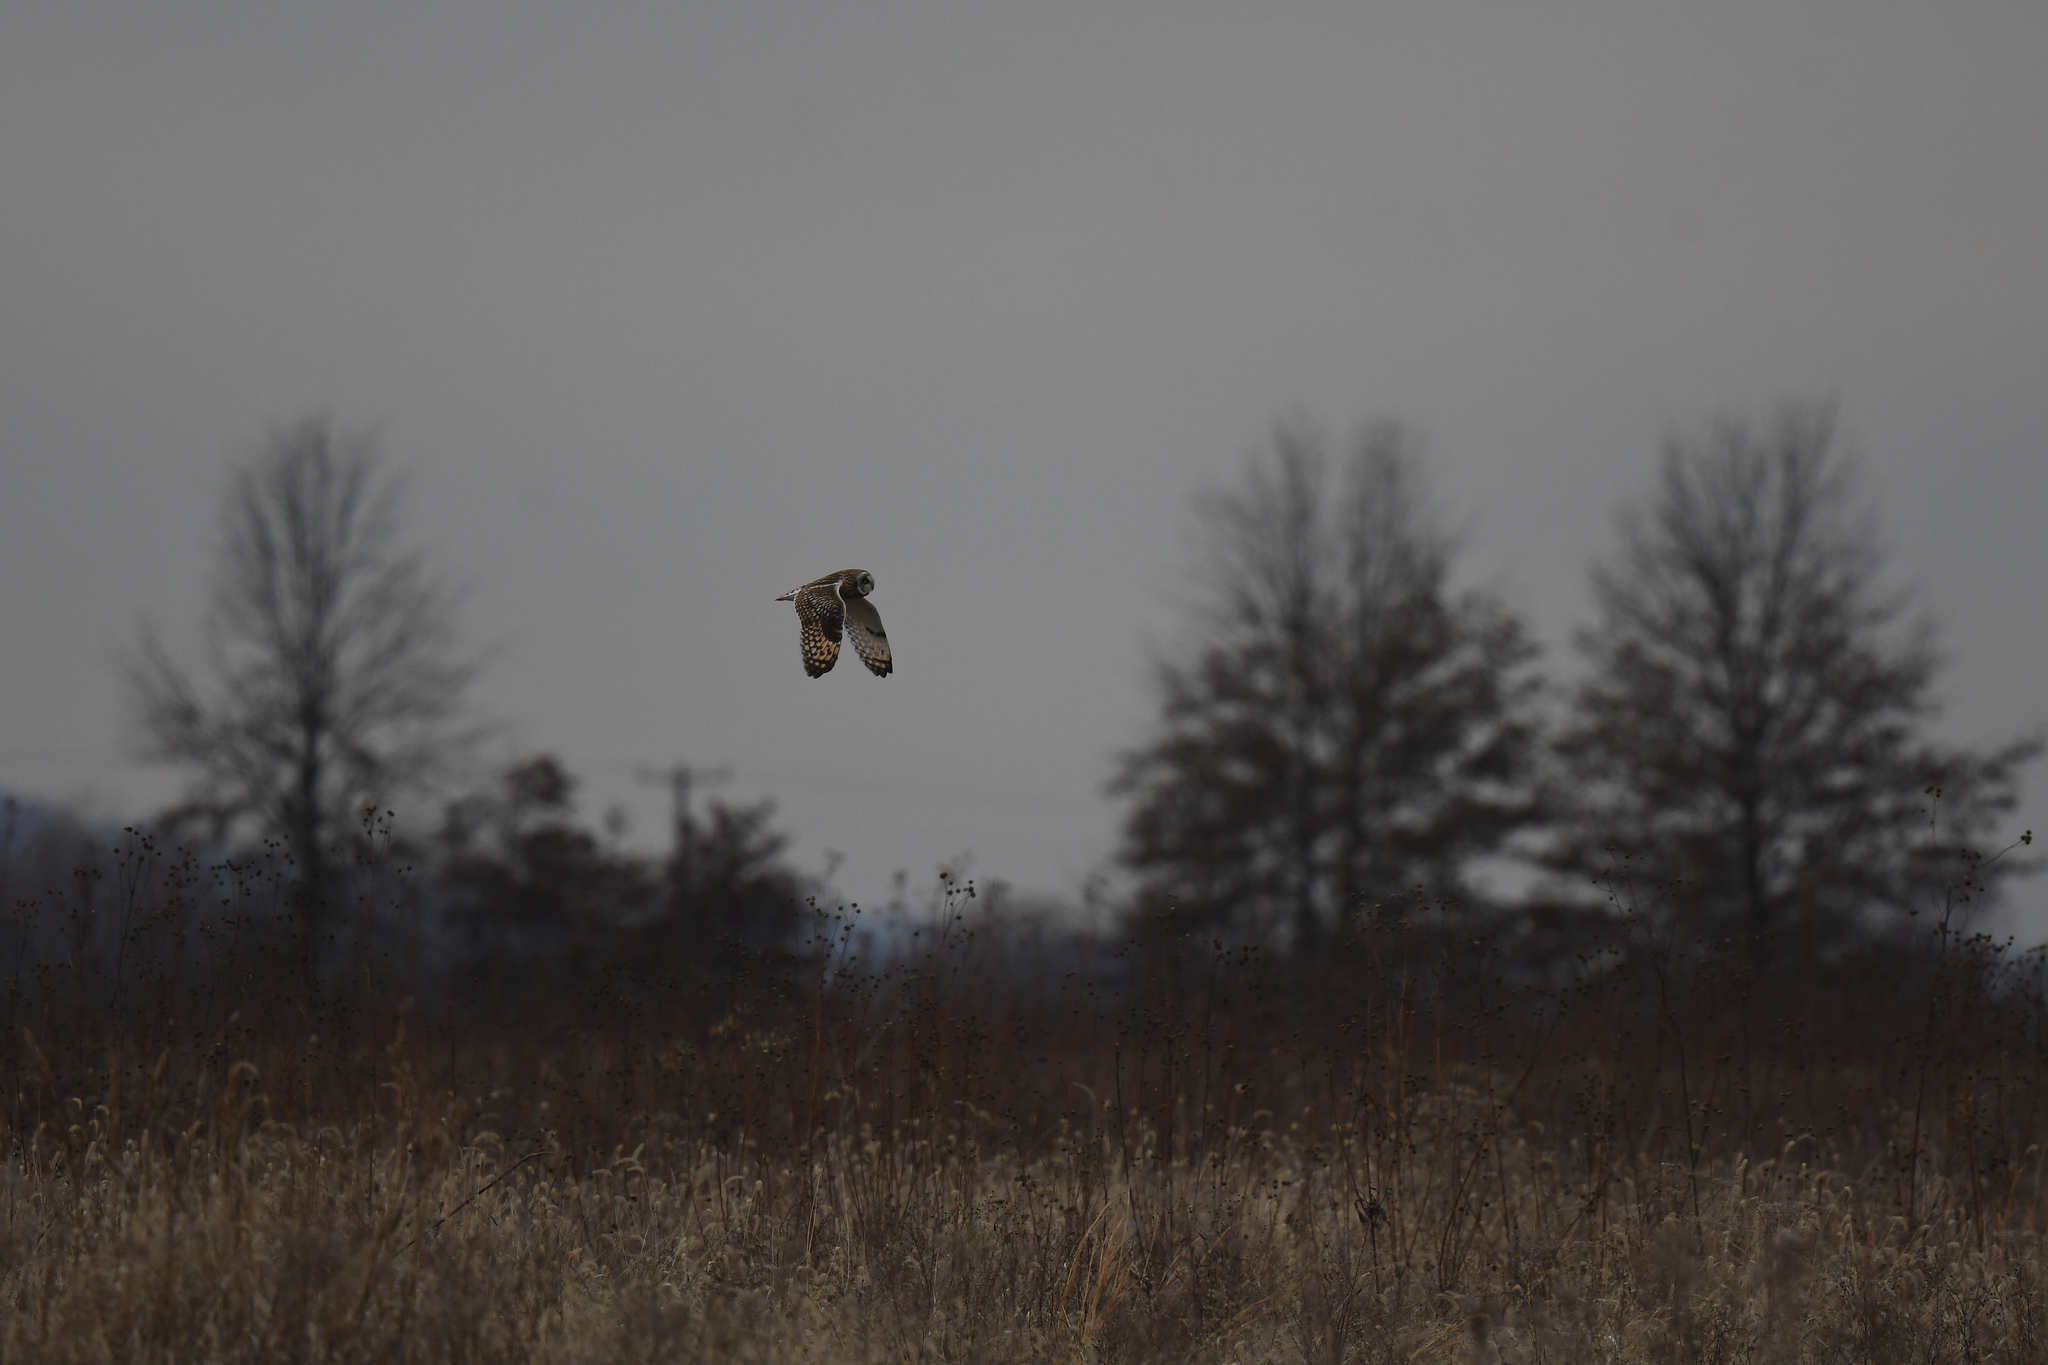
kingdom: Animalia
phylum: Chordata
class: Aves
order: Strigiformes
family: Strigidae
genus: Asio
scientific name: Asio flammeus
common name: Short-eared owl
